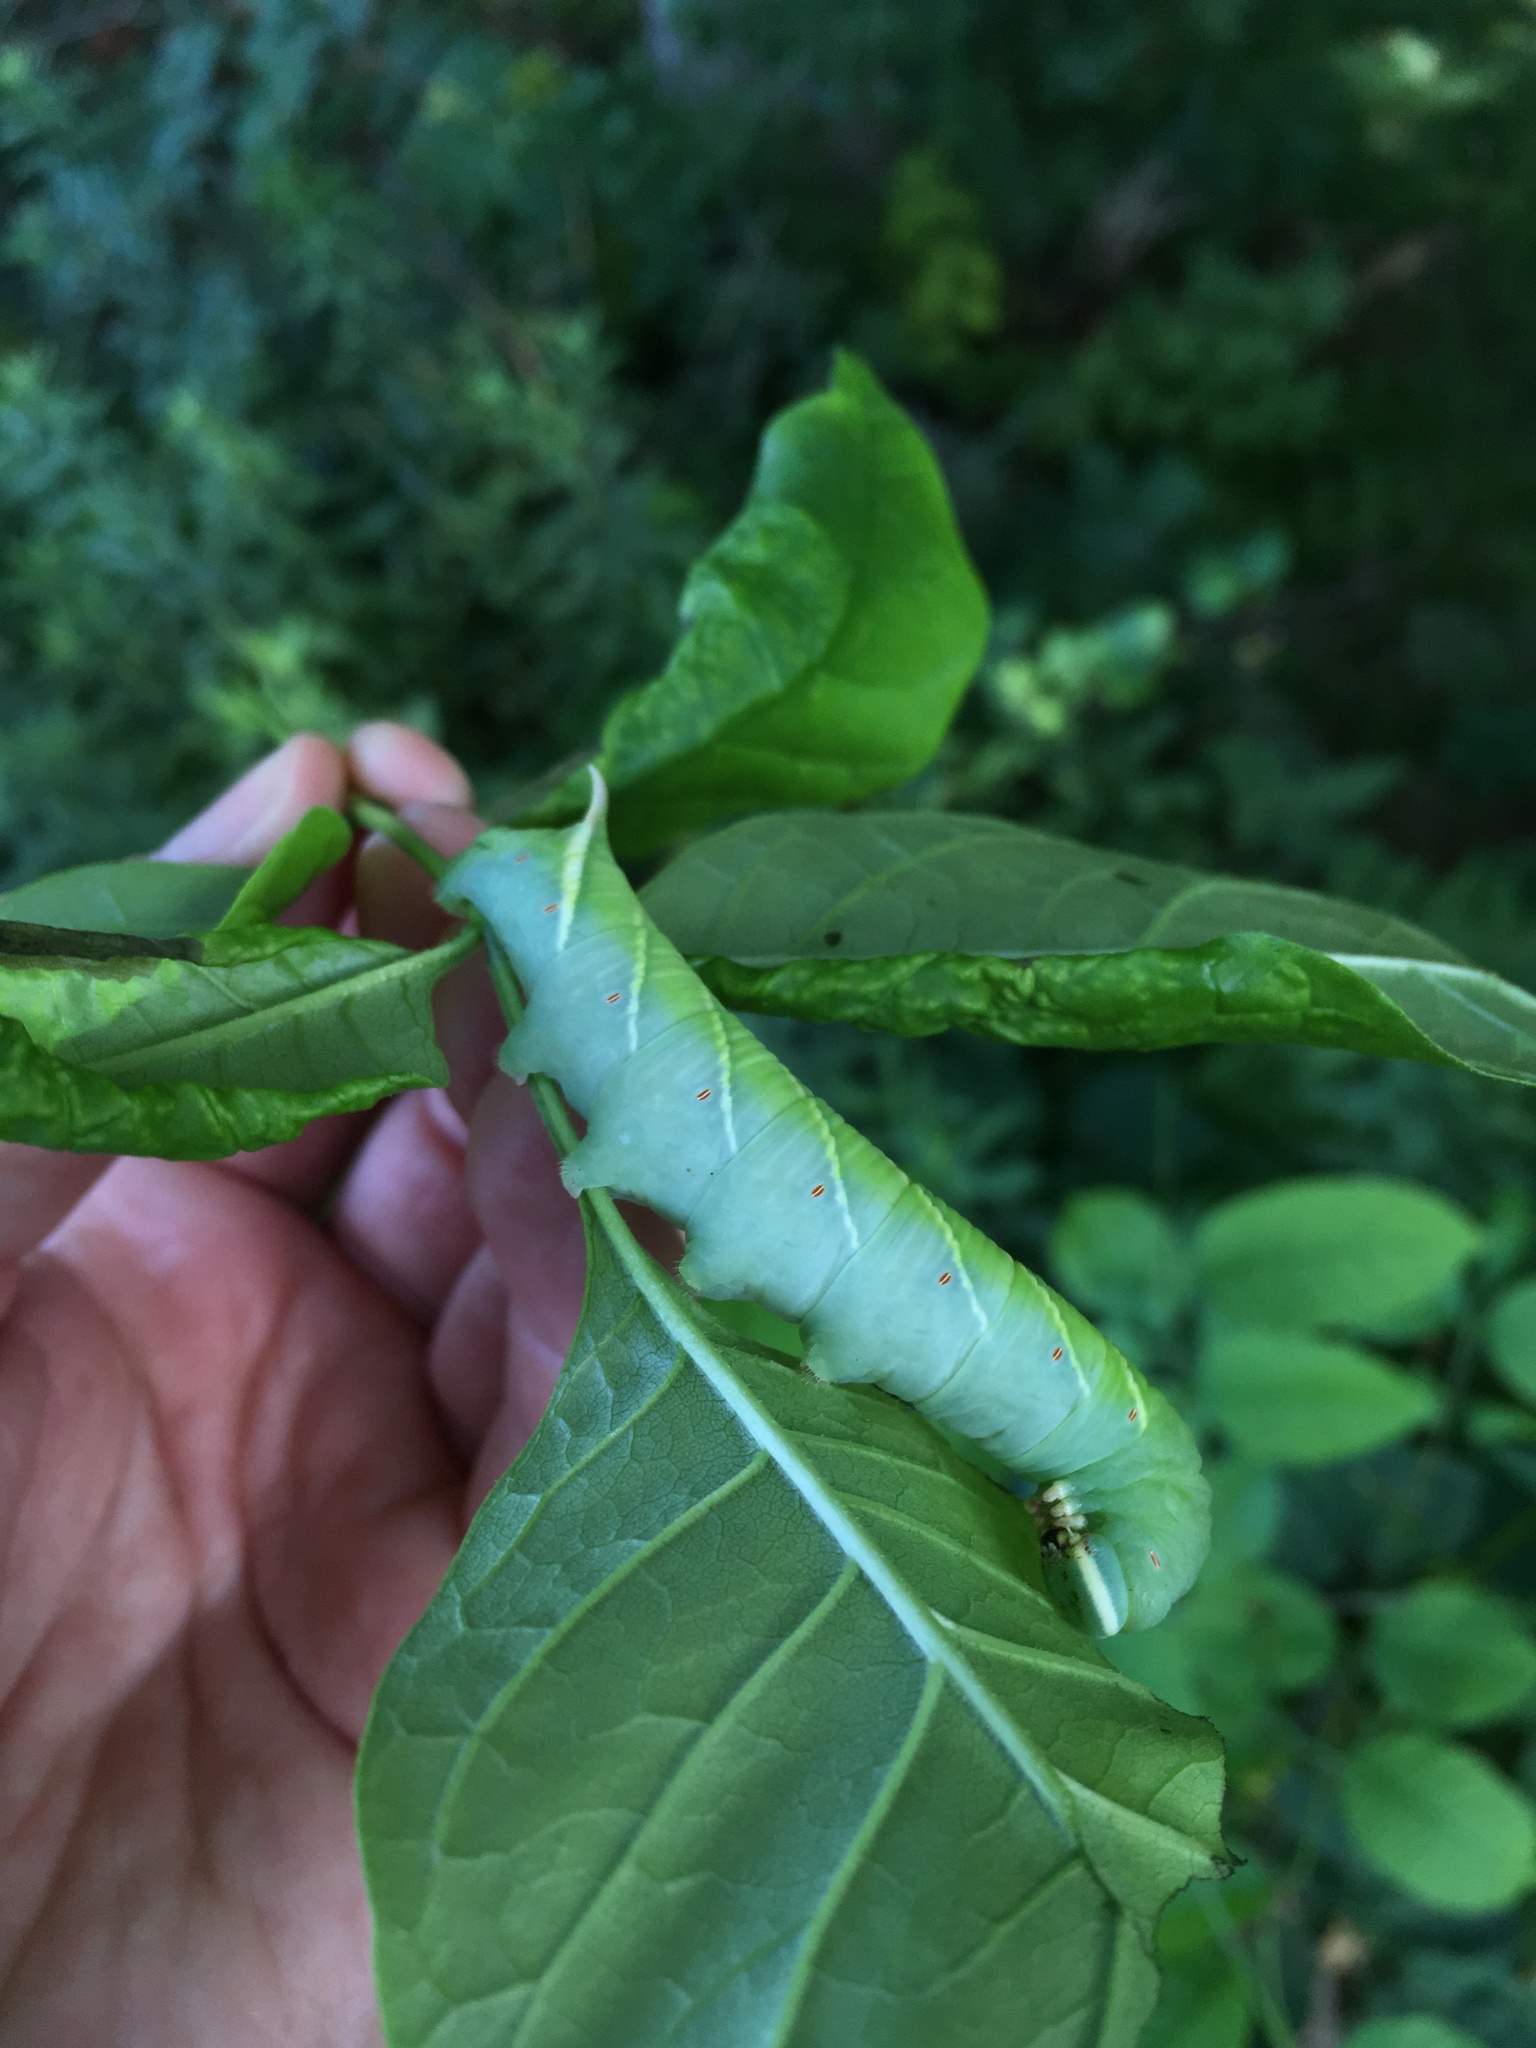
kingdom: Animalia
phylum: Arthropoda
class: Insecta
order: Lepidoptera
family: Sphingidae
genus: Ceratomia
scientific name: Ceratomia undulosa
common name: Waved sphinx
